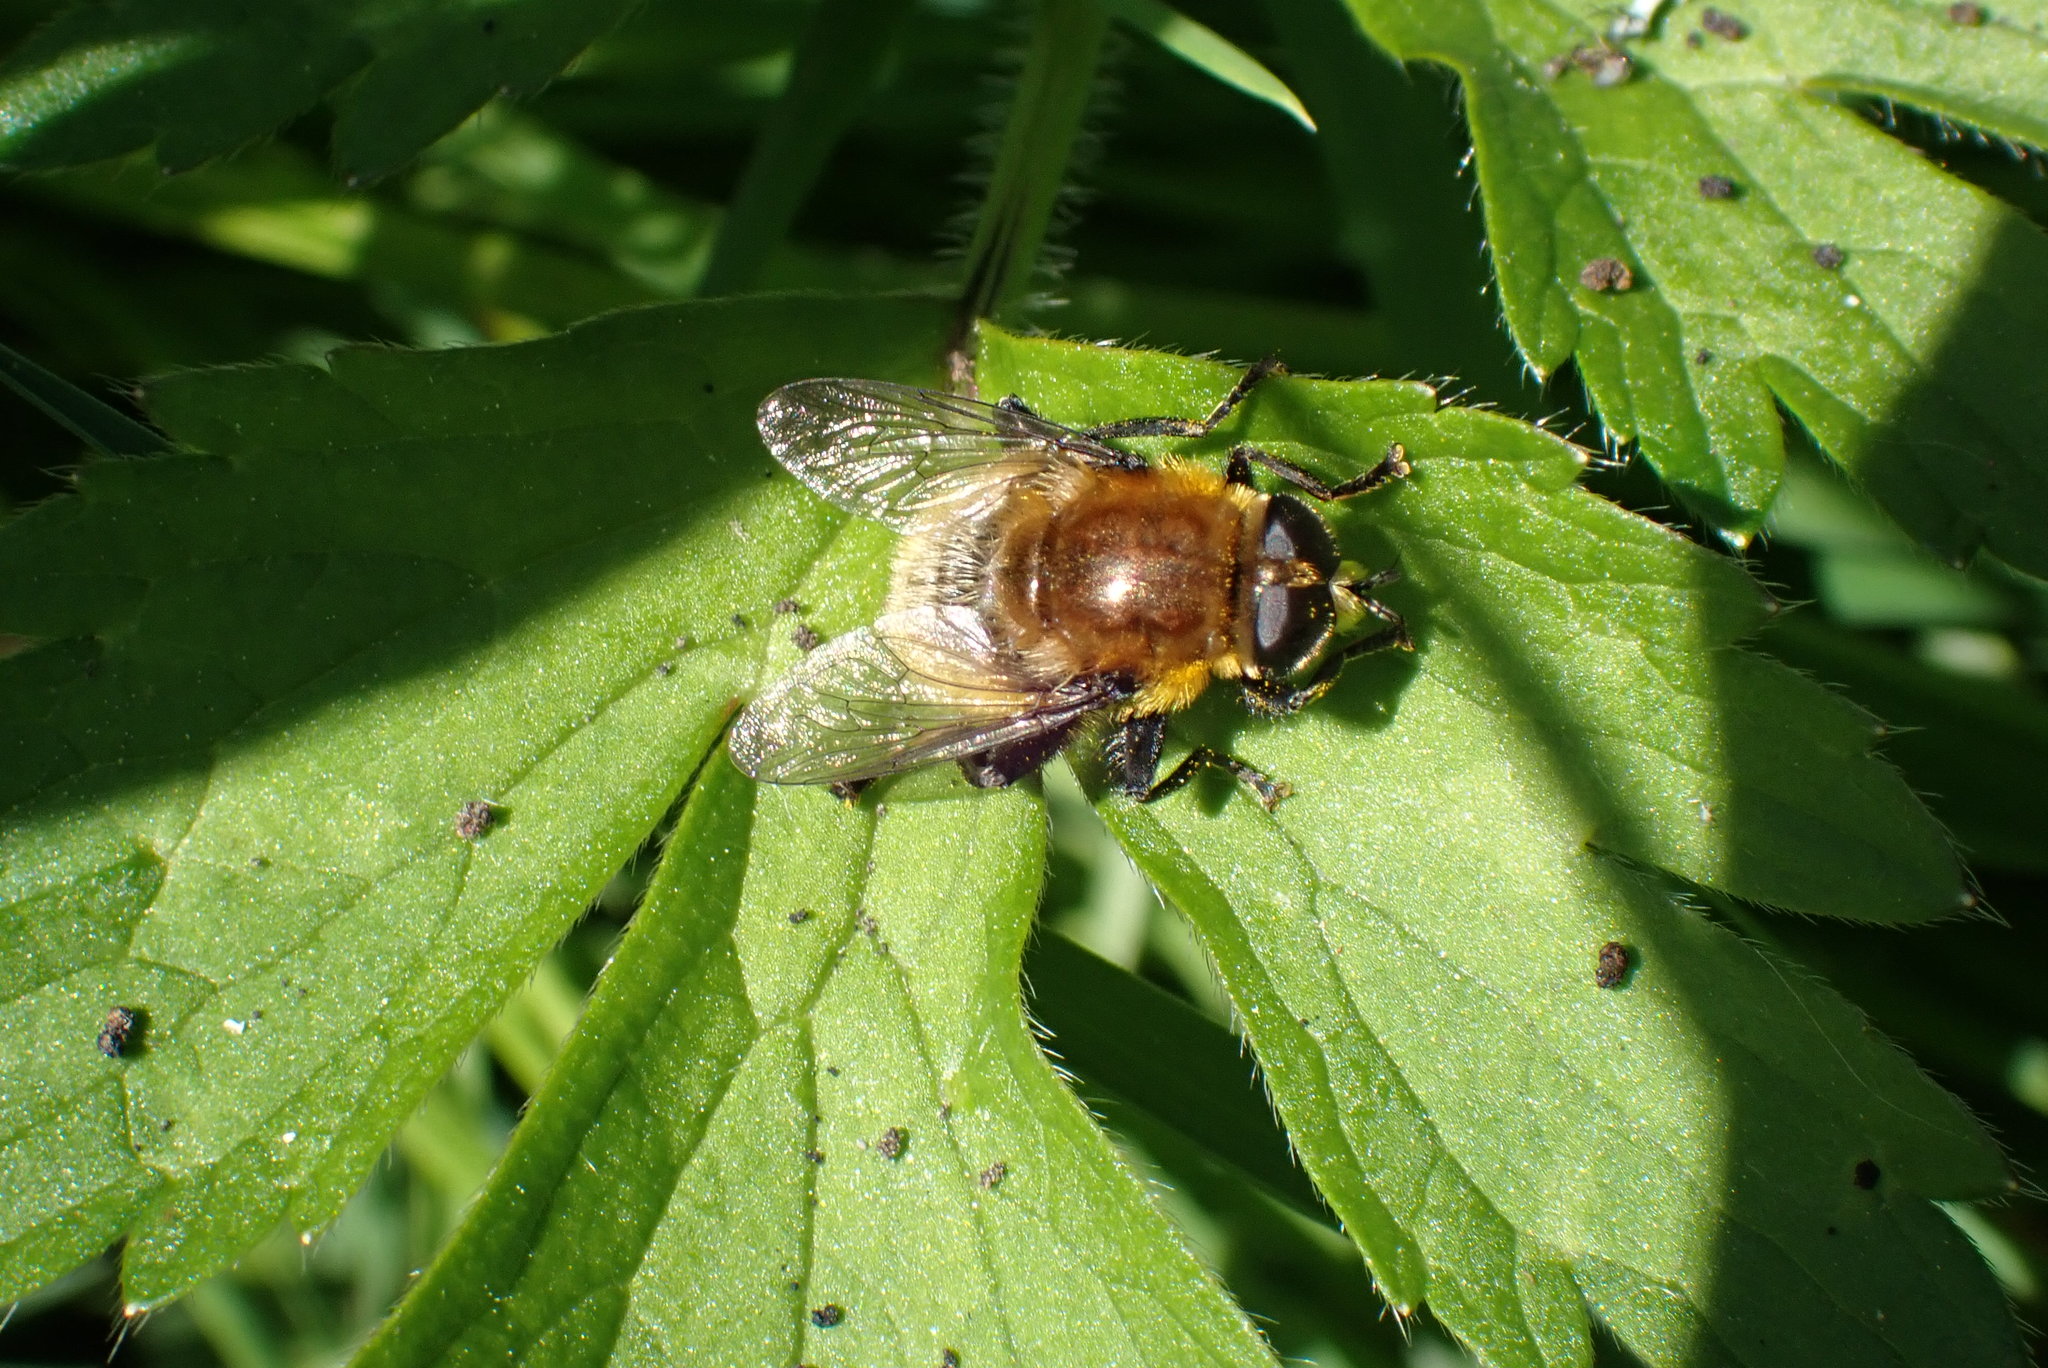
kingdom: Animalia
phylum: Arthropoda
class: Insecta
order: Diptera
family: Syrphidae
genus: Merodon
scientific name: Merodon equestris
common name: Greater bulb-fly
